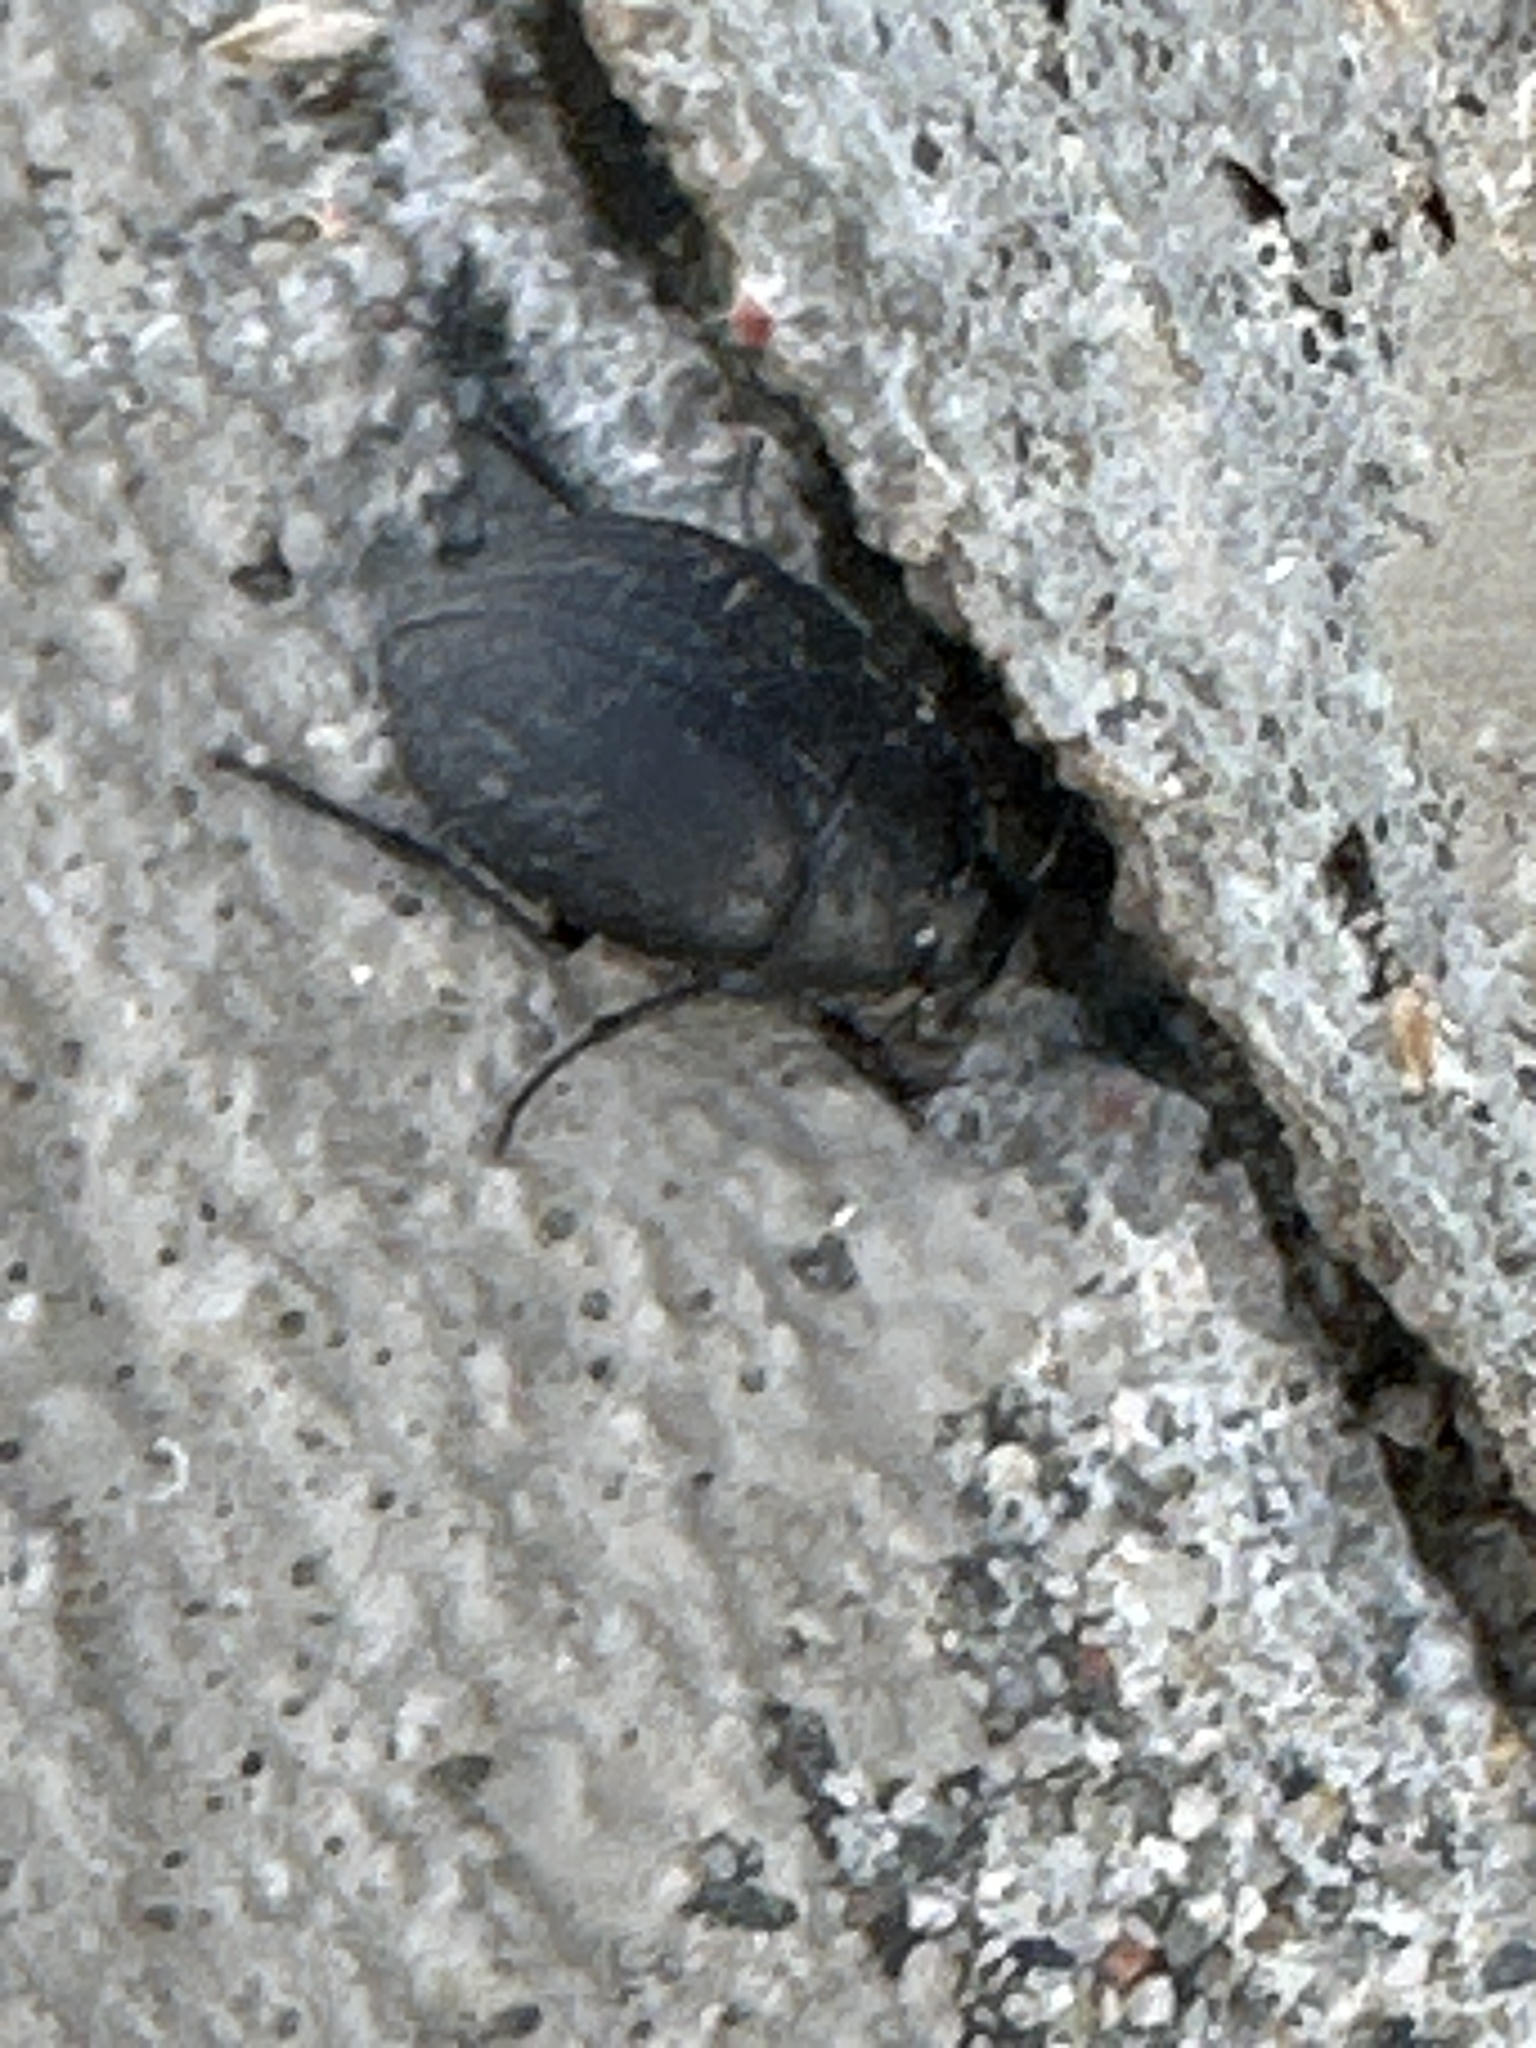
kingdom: Animalia
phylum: Arthropoda
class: Insecta
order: Coleoptera
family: Tenebrionidae
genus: Eusattus
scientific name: Eusattus reticulatus
